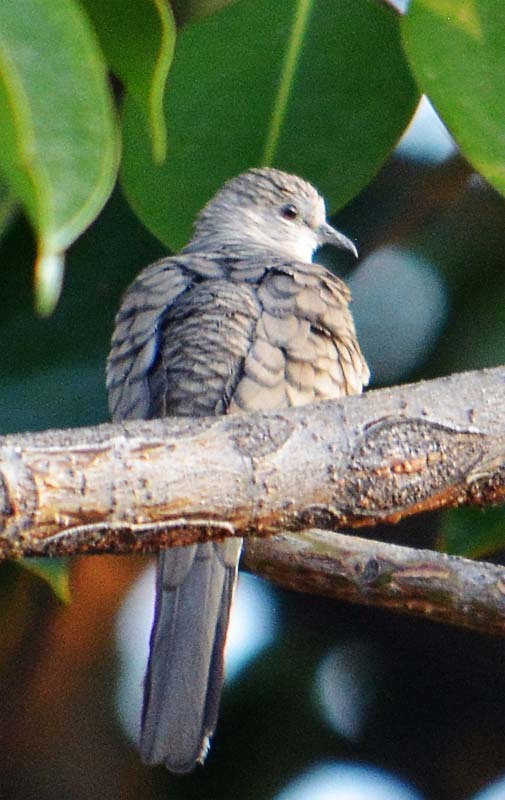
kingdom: Animalia
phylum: Chordata
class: Aves
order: Columbiformes
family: Columbidae
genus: Columbina
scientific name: Columbina inca
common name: Inca dove
